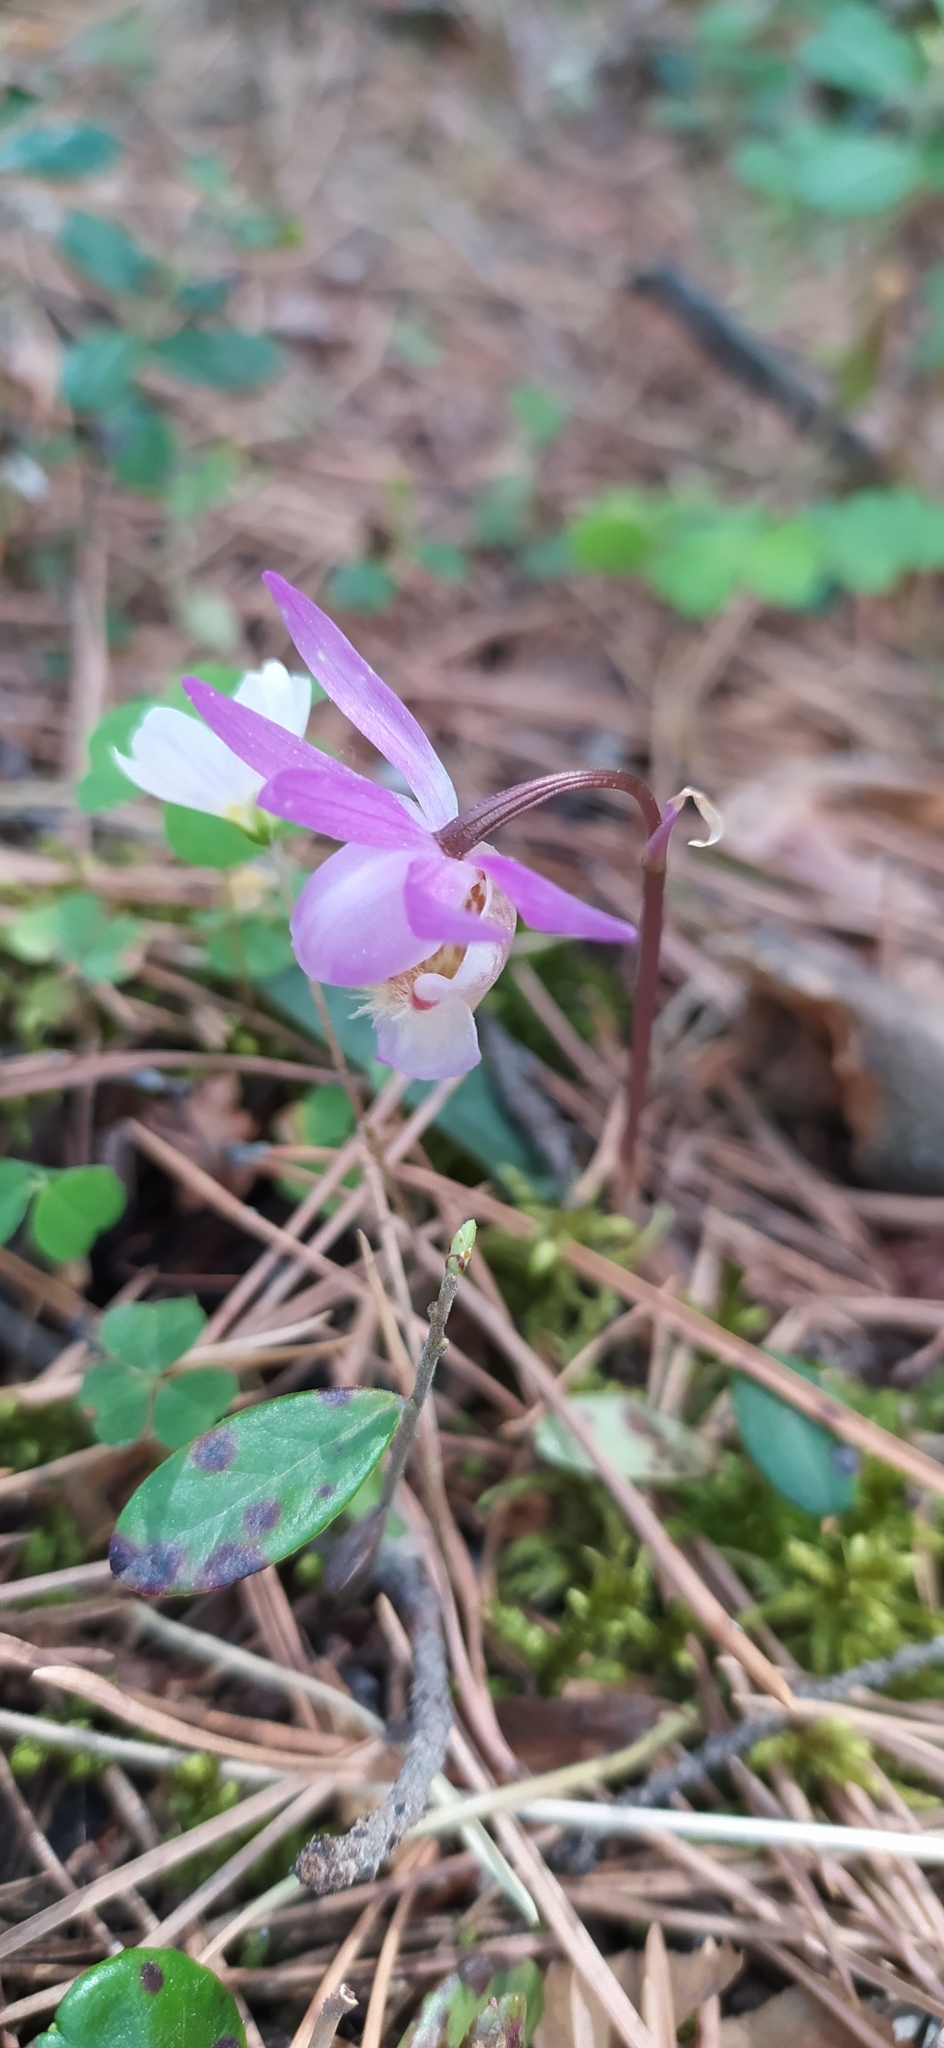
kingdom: Plantae
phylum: Tracheophyta
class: Liliopsida
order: Asparagales
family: Orchidaceae
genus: Calypso
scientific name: Calypso bulbosa
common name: Calypso
